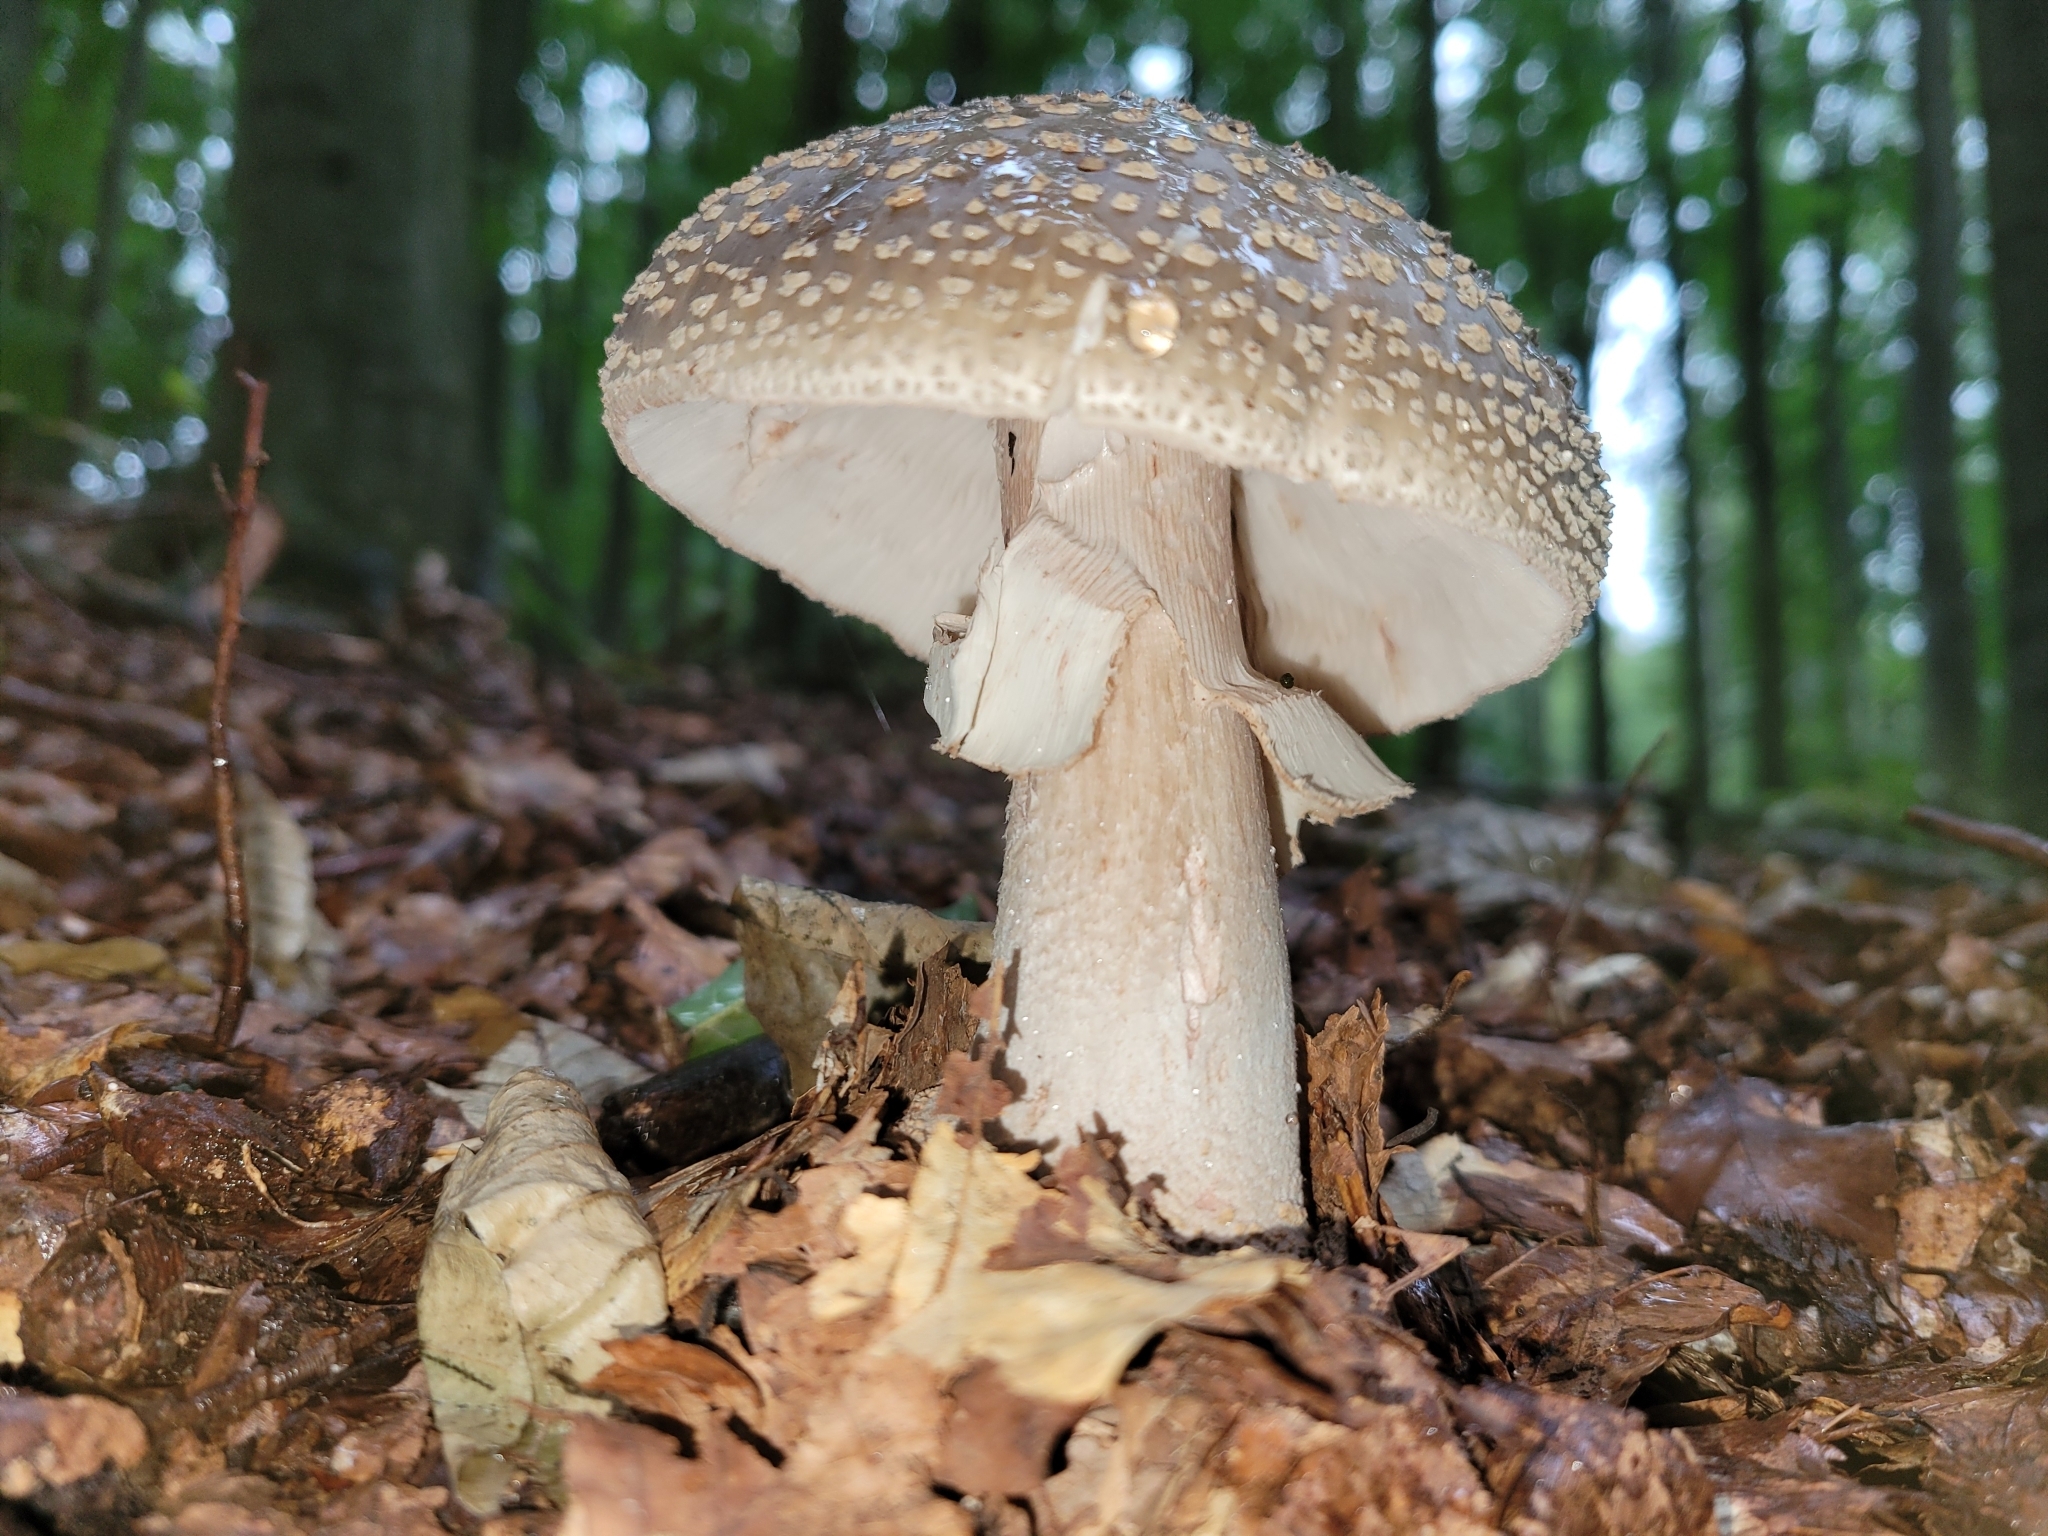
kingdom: Fungi
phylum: Basidiomycota
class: Agaricomycetes
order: Agaricales
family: Amanitaceae
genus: Amanita
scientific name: Amanita rubescens
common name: Blusher
